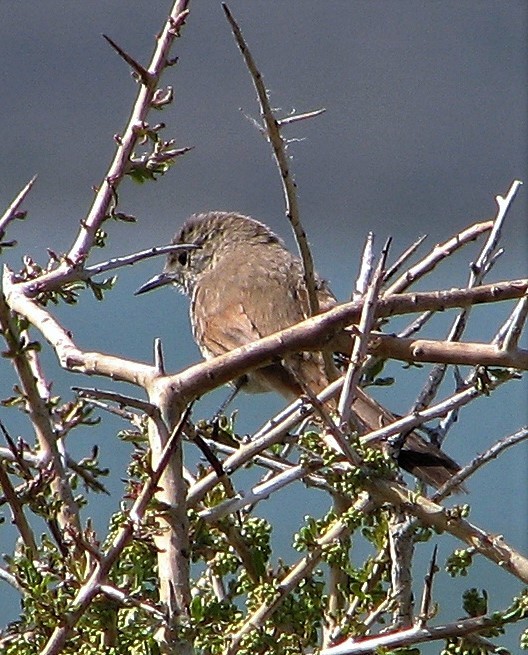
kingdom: Animalia
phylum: Chordata
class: Aves
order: Passeriformes
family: Furnariidae
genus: Asthenes
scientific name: Asthenes pyrrholeuca
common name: Sharp-billed canastero
